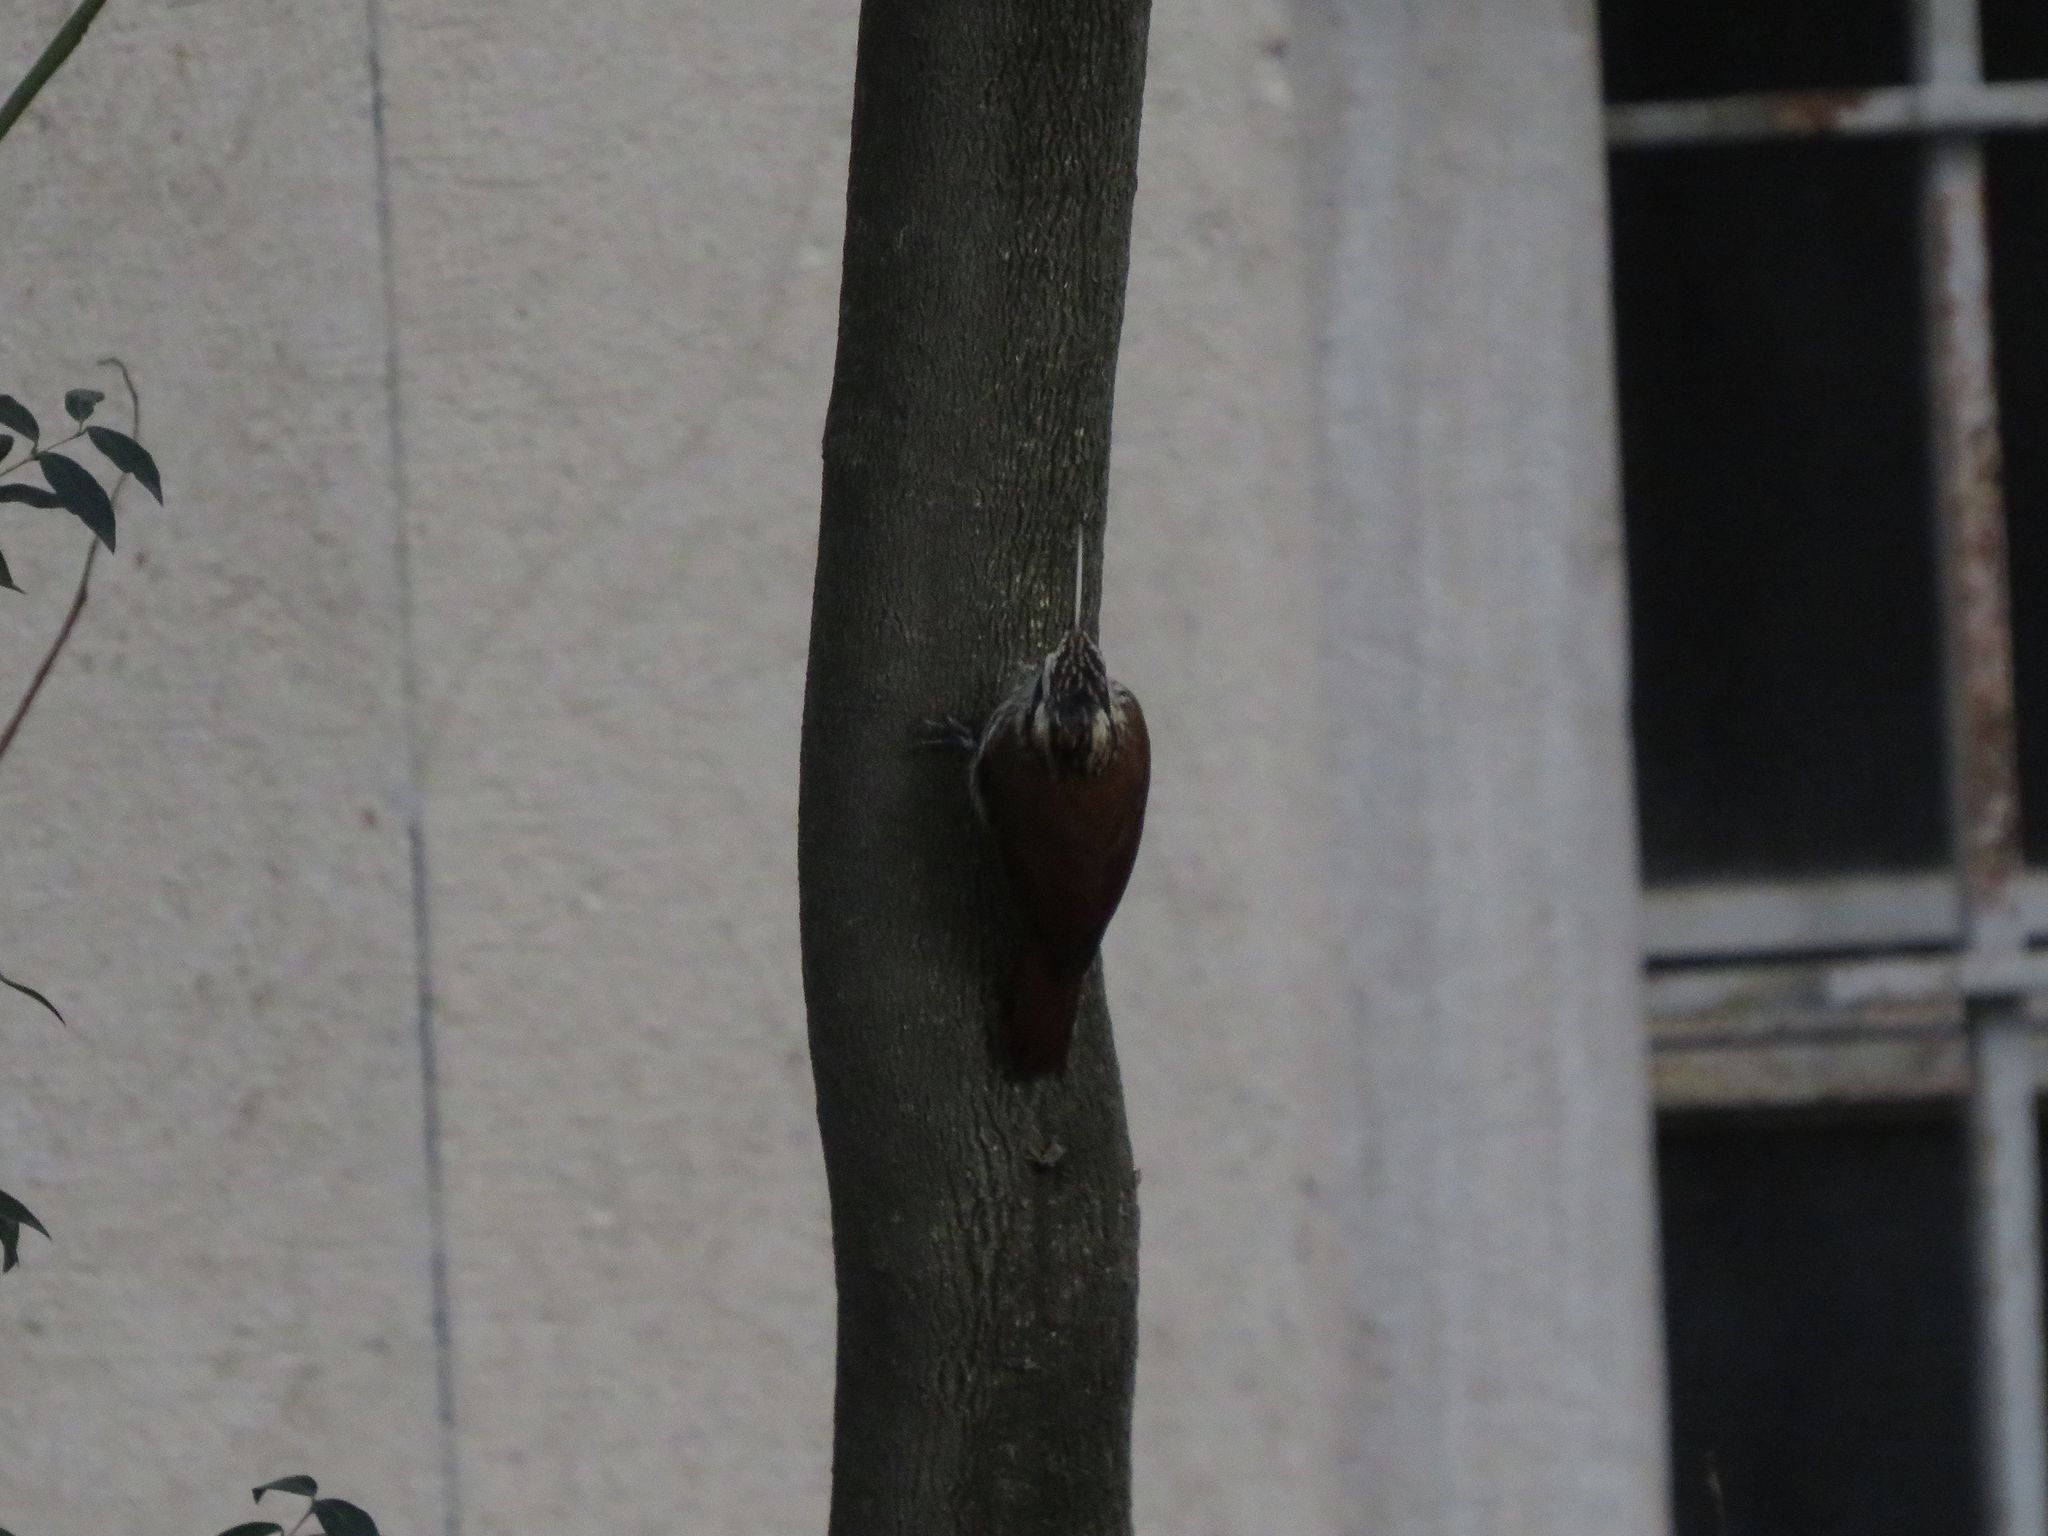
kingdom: Animalia
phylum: Chordata
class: Aves
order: Passeriformes
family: Furnariidae
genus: Lepidocolaptes
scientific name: Lepidocolaptes angustirostris
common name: Narrow-billed woodcreeper
